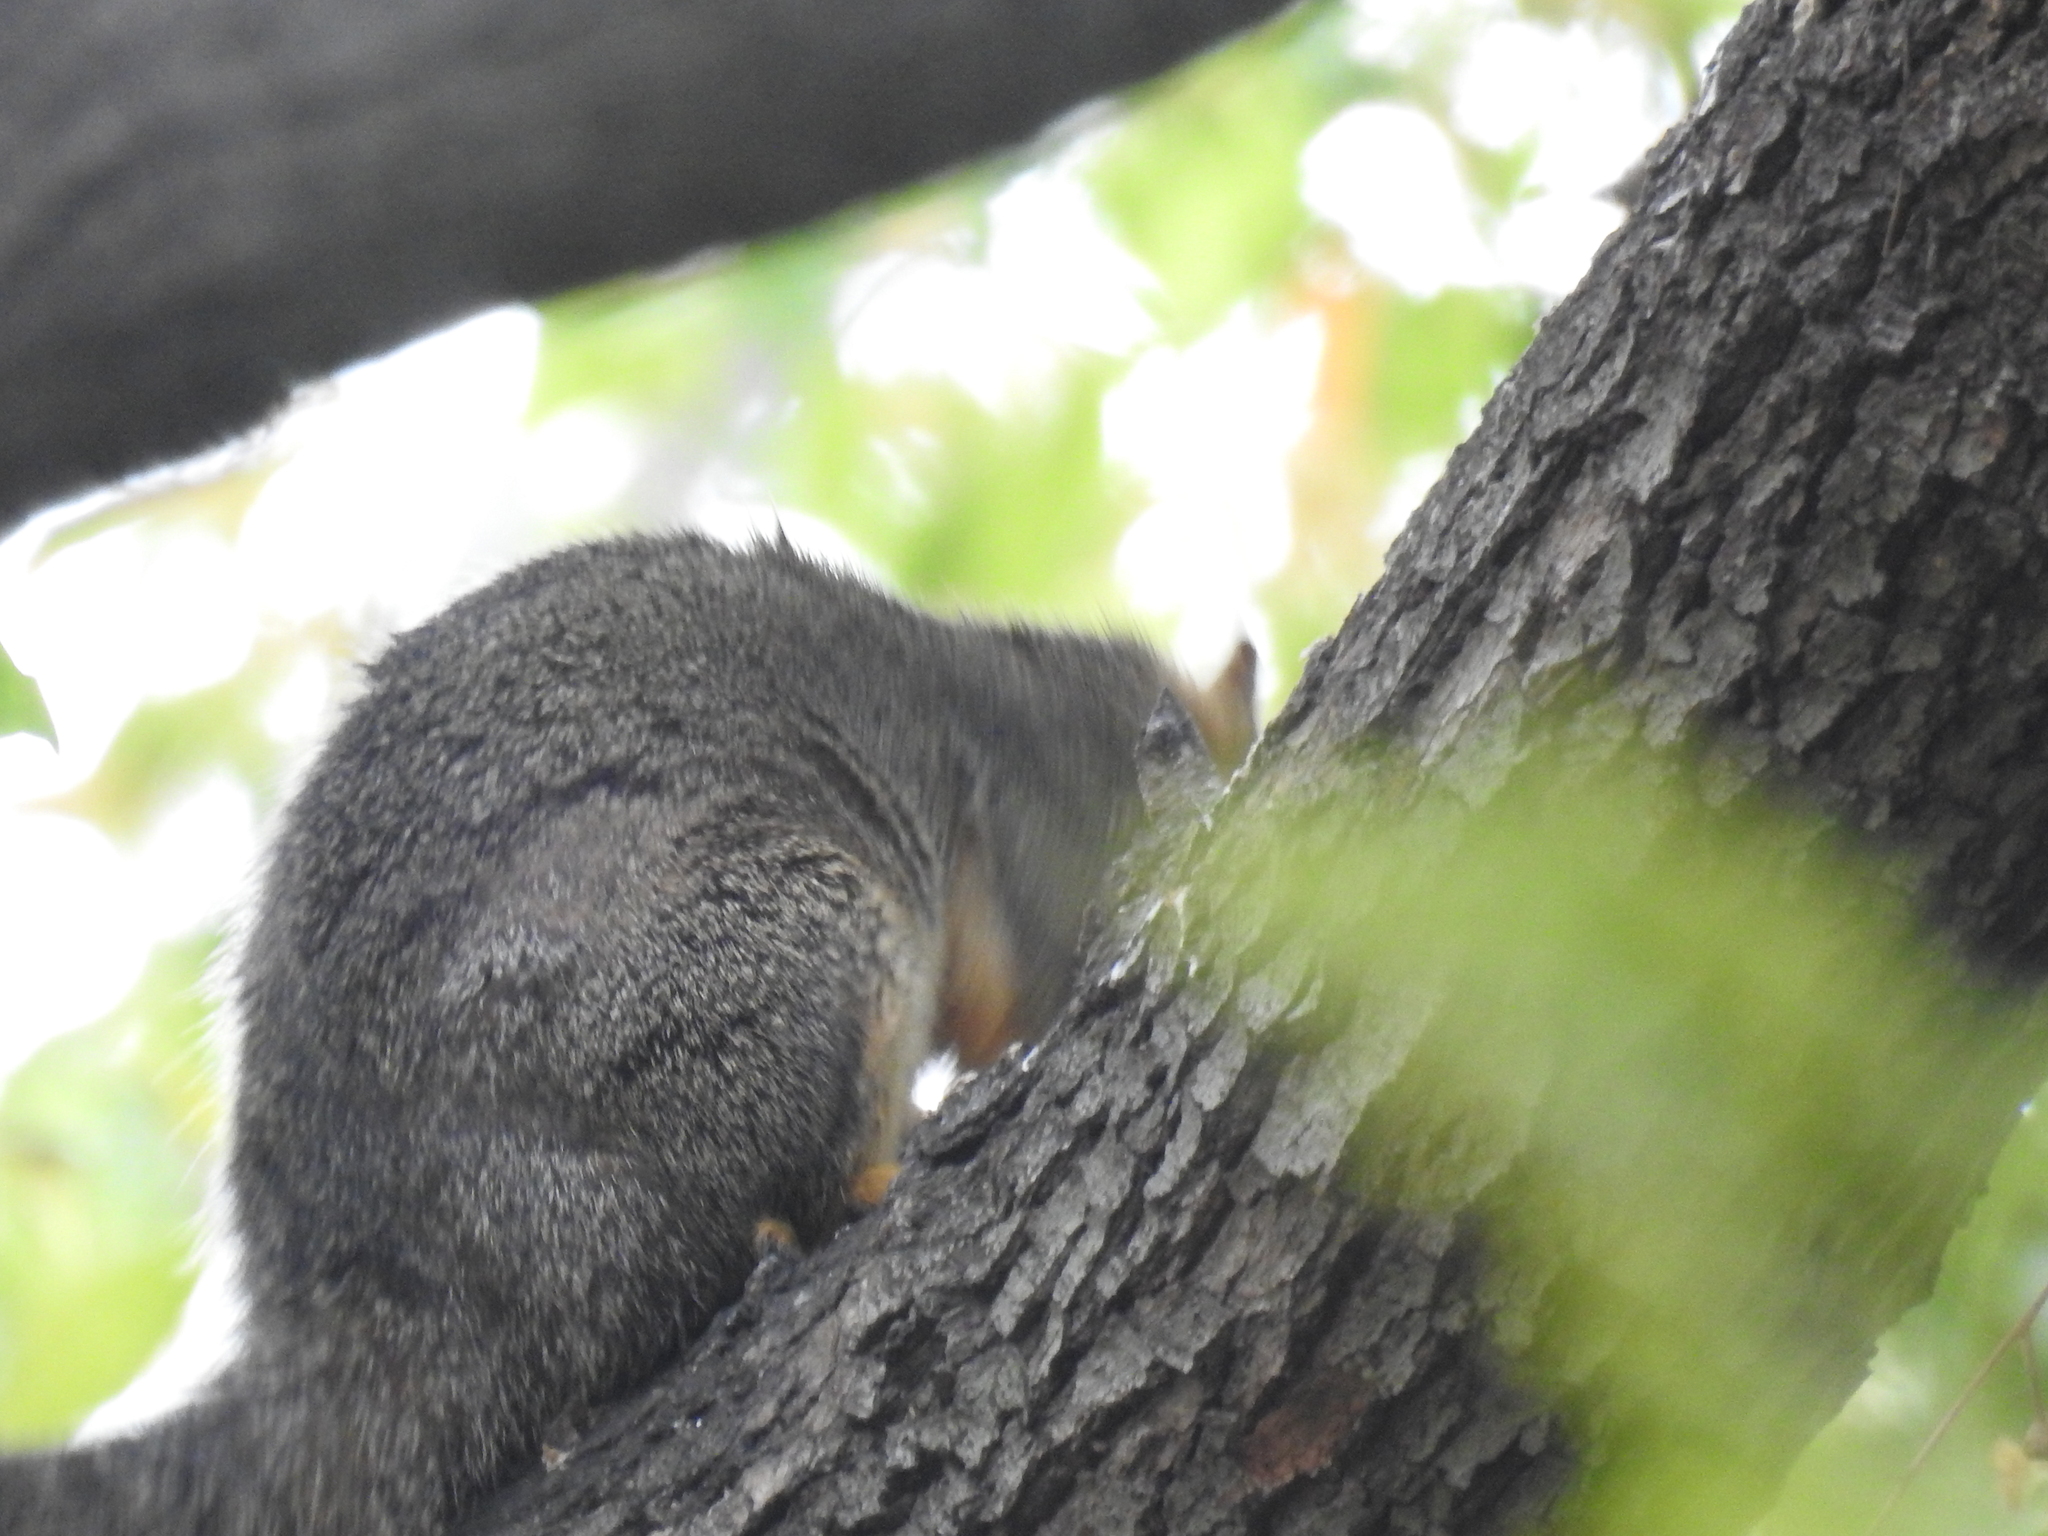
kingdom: Animalia
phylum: Chordata
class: Mammalia
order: Rodentia
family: Sciuridae
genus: Sciurus
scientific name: Sciurus niger
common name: Fox squirrel
